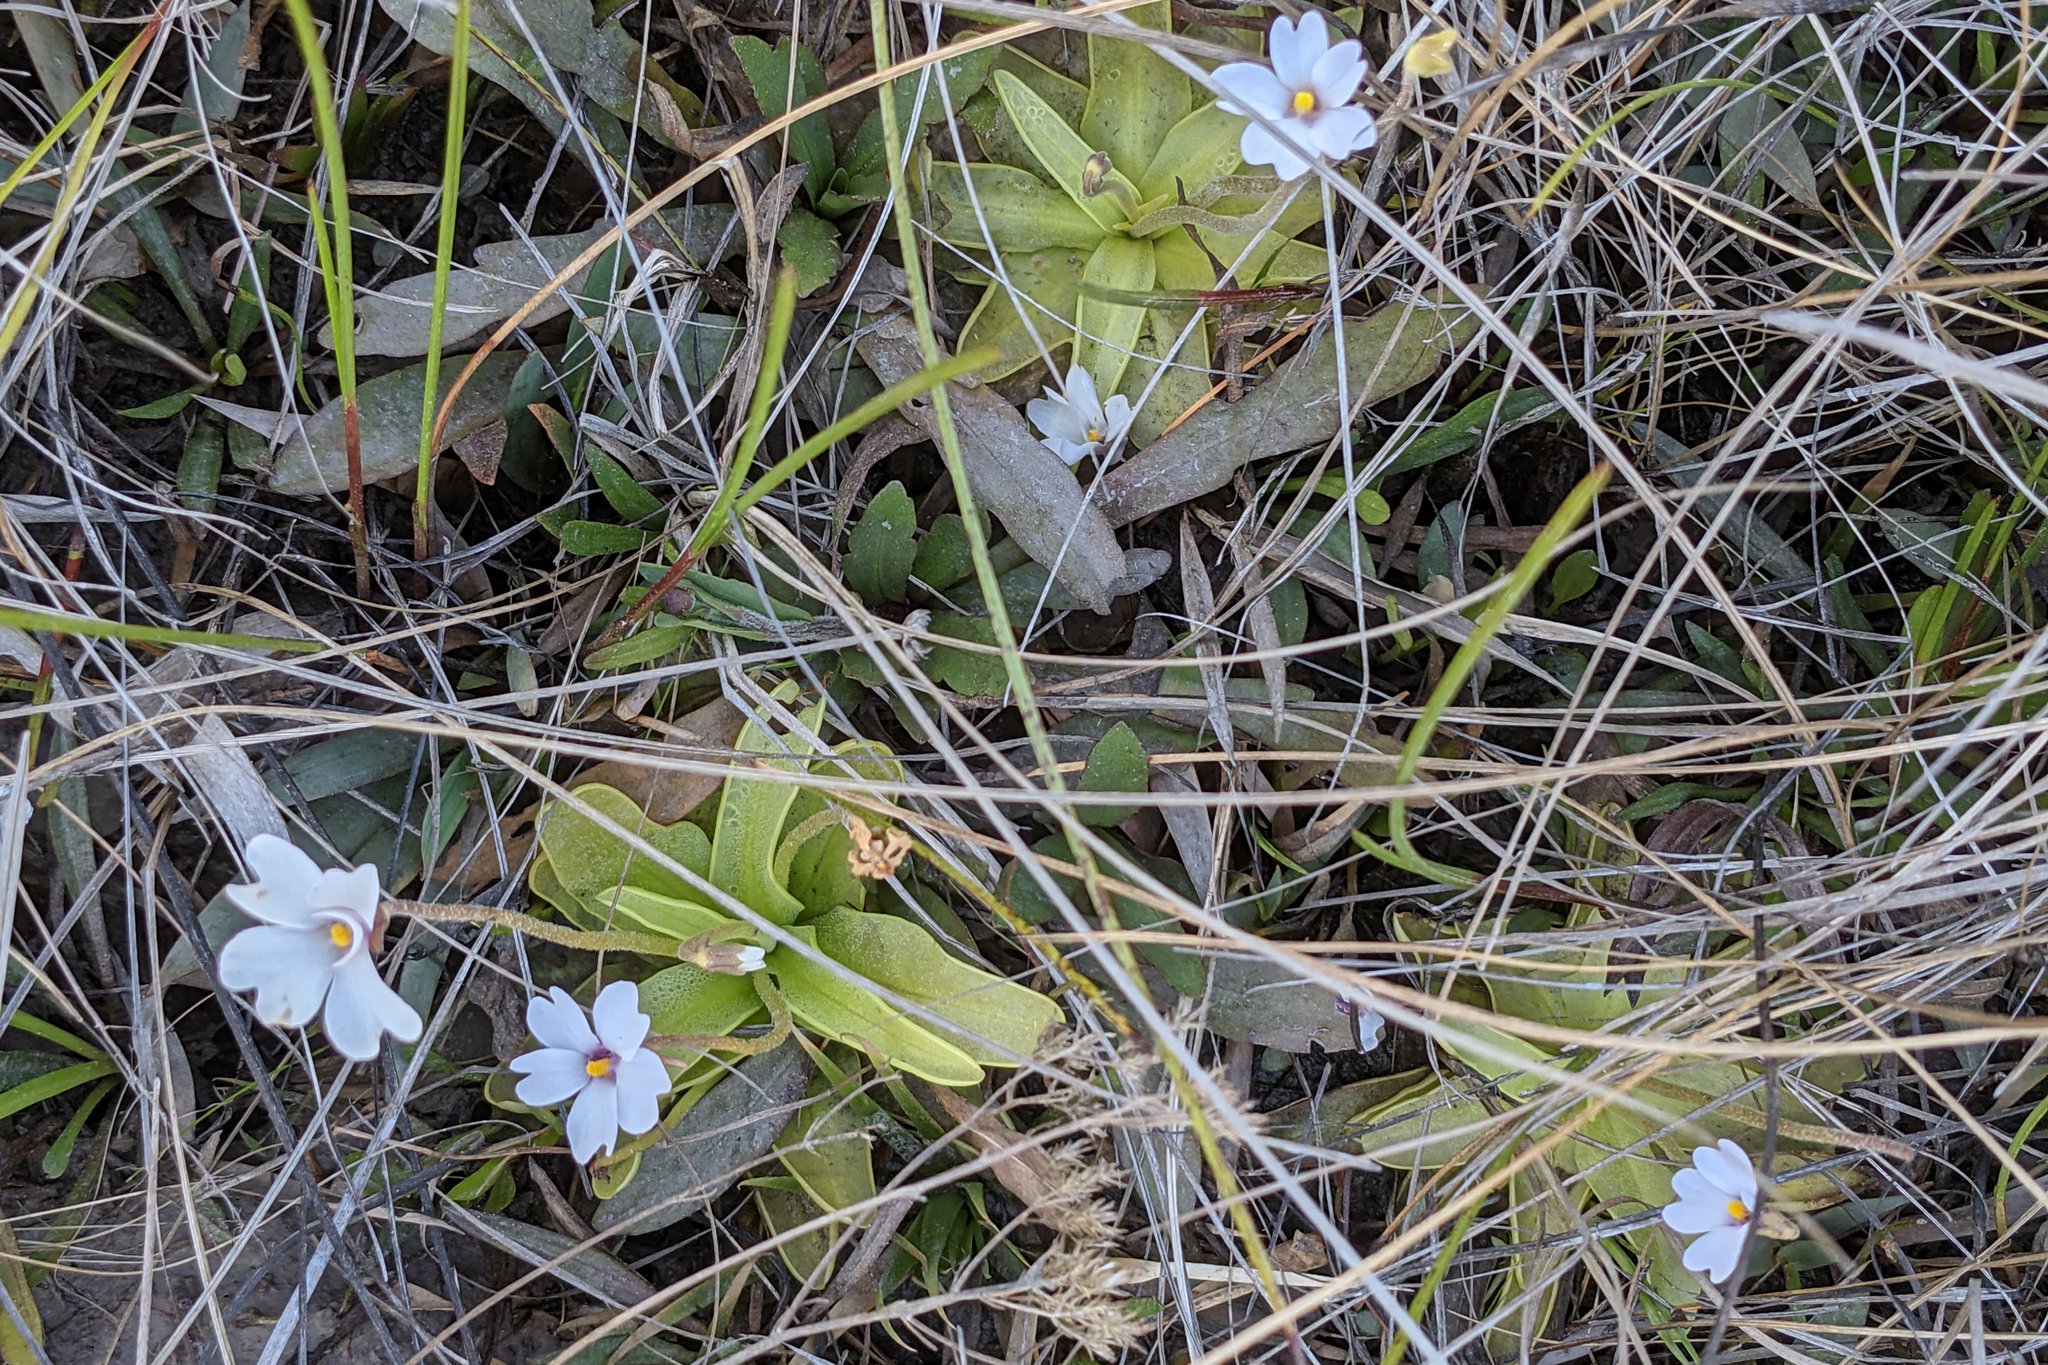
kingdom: Plantae
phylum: Tracheophyta
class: Magnoliopsida
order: Lamiales
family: Lentibulariaceae
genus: Pinguicula
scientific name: Pinguicula ionantha
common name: Godfrey's butterwort
